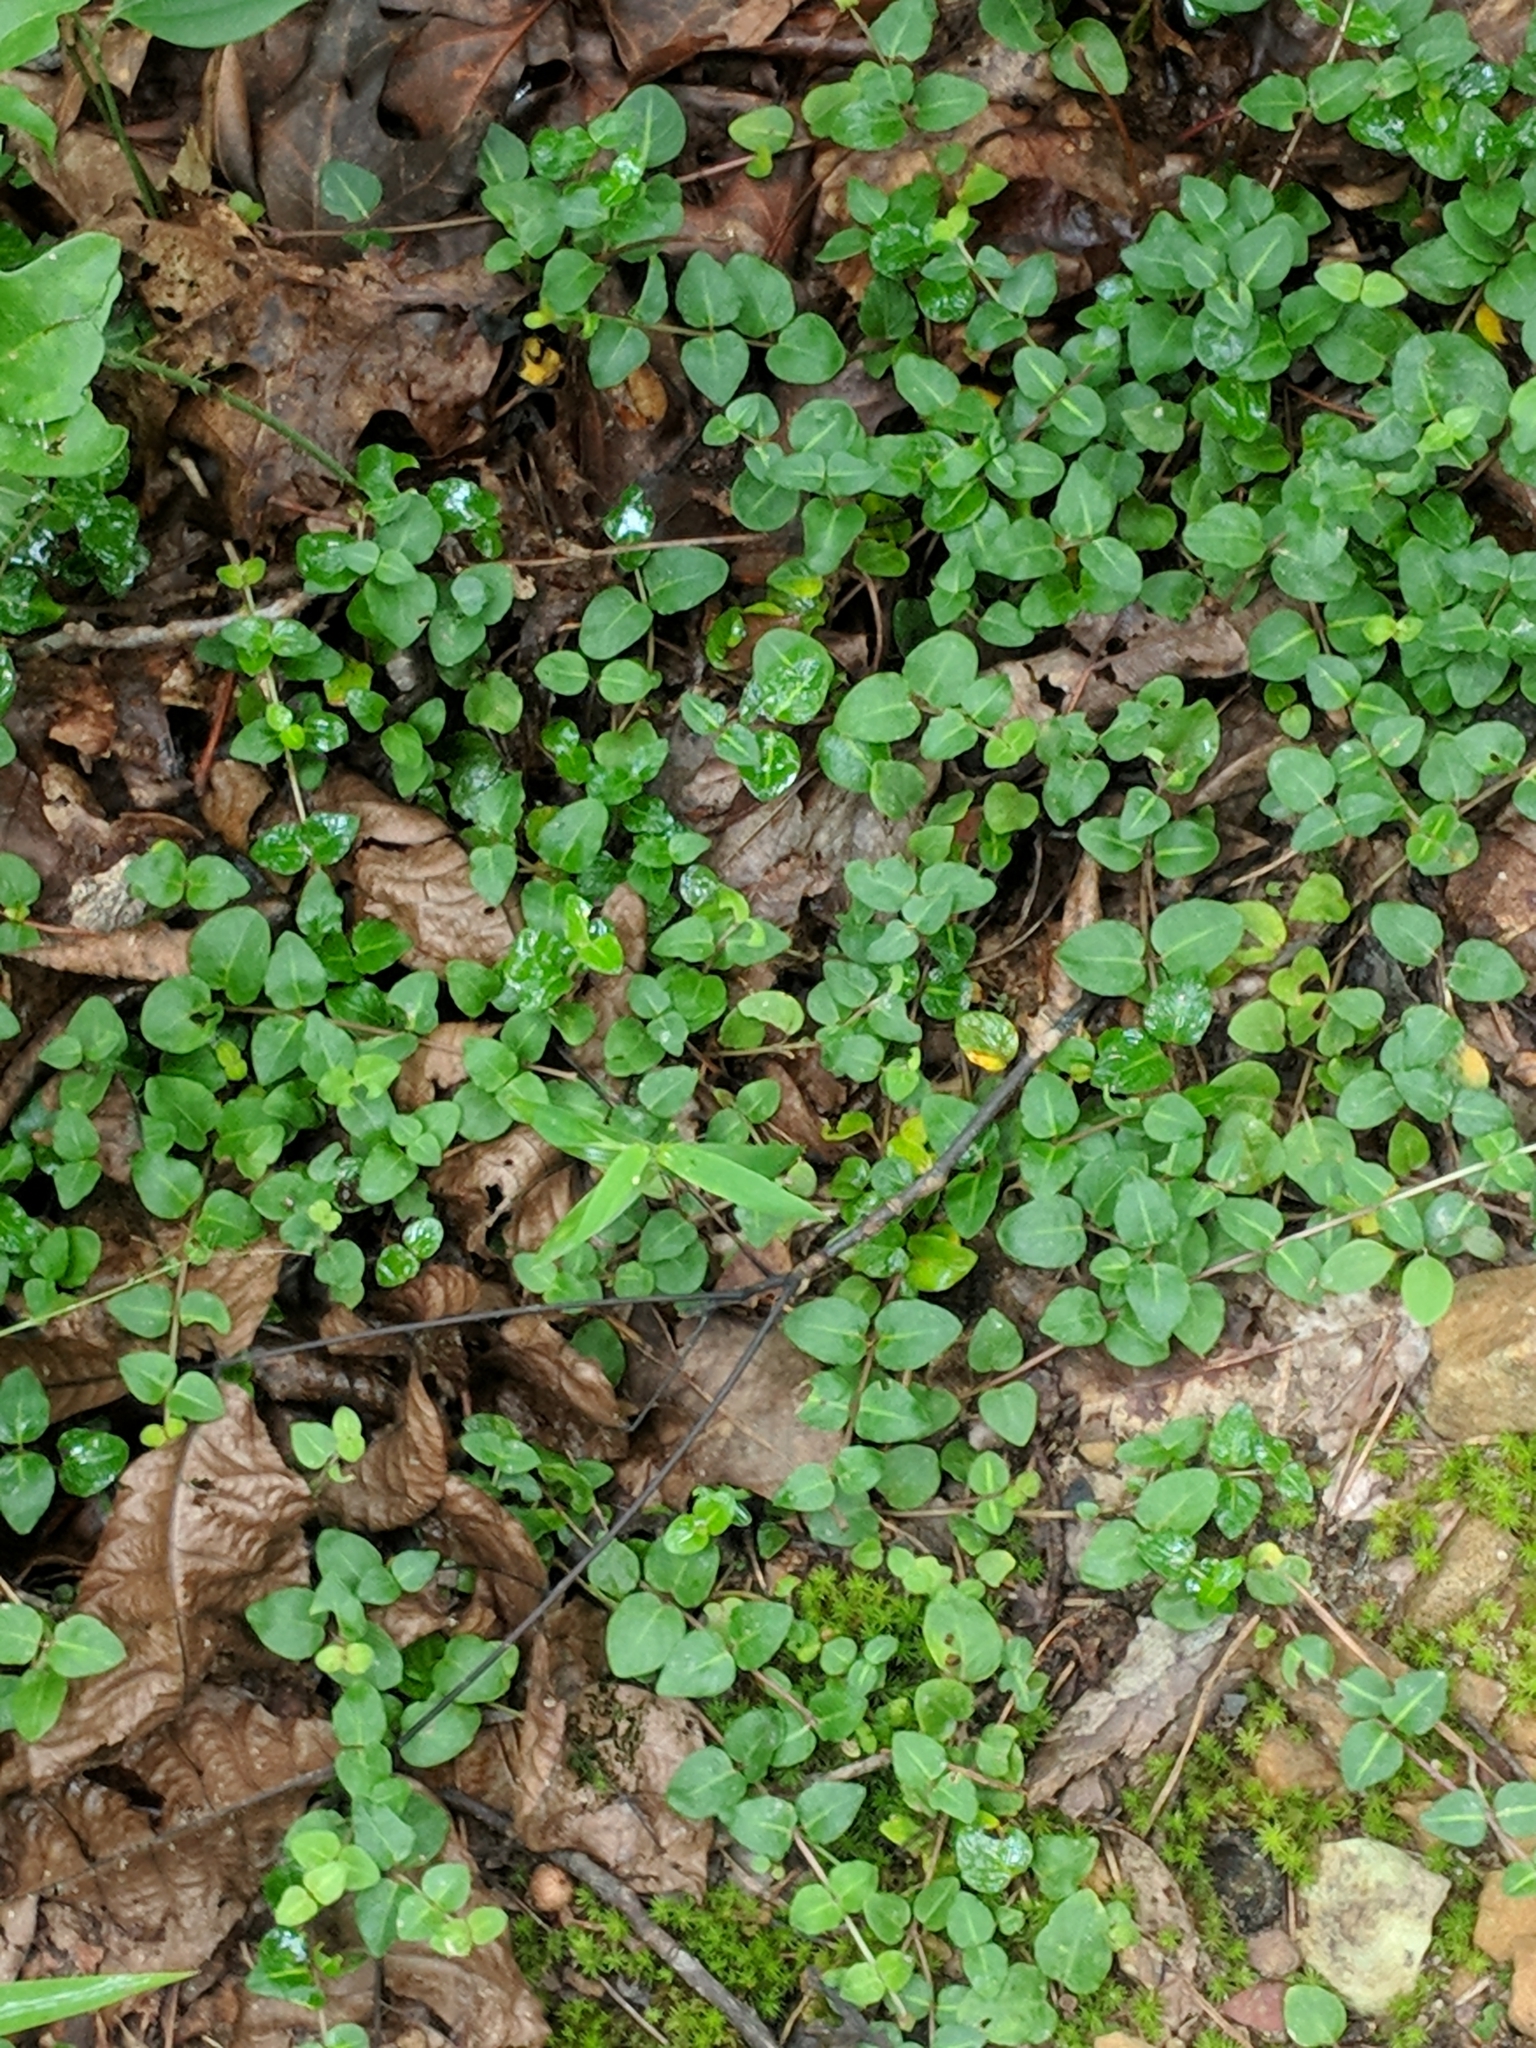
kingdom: Plantae
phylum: Tracheophyta
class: Magnoliopsida
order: Gentianales
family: Rubiaceae
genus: Mitchella
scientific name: Mitchella repens
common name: Partridge-berry
